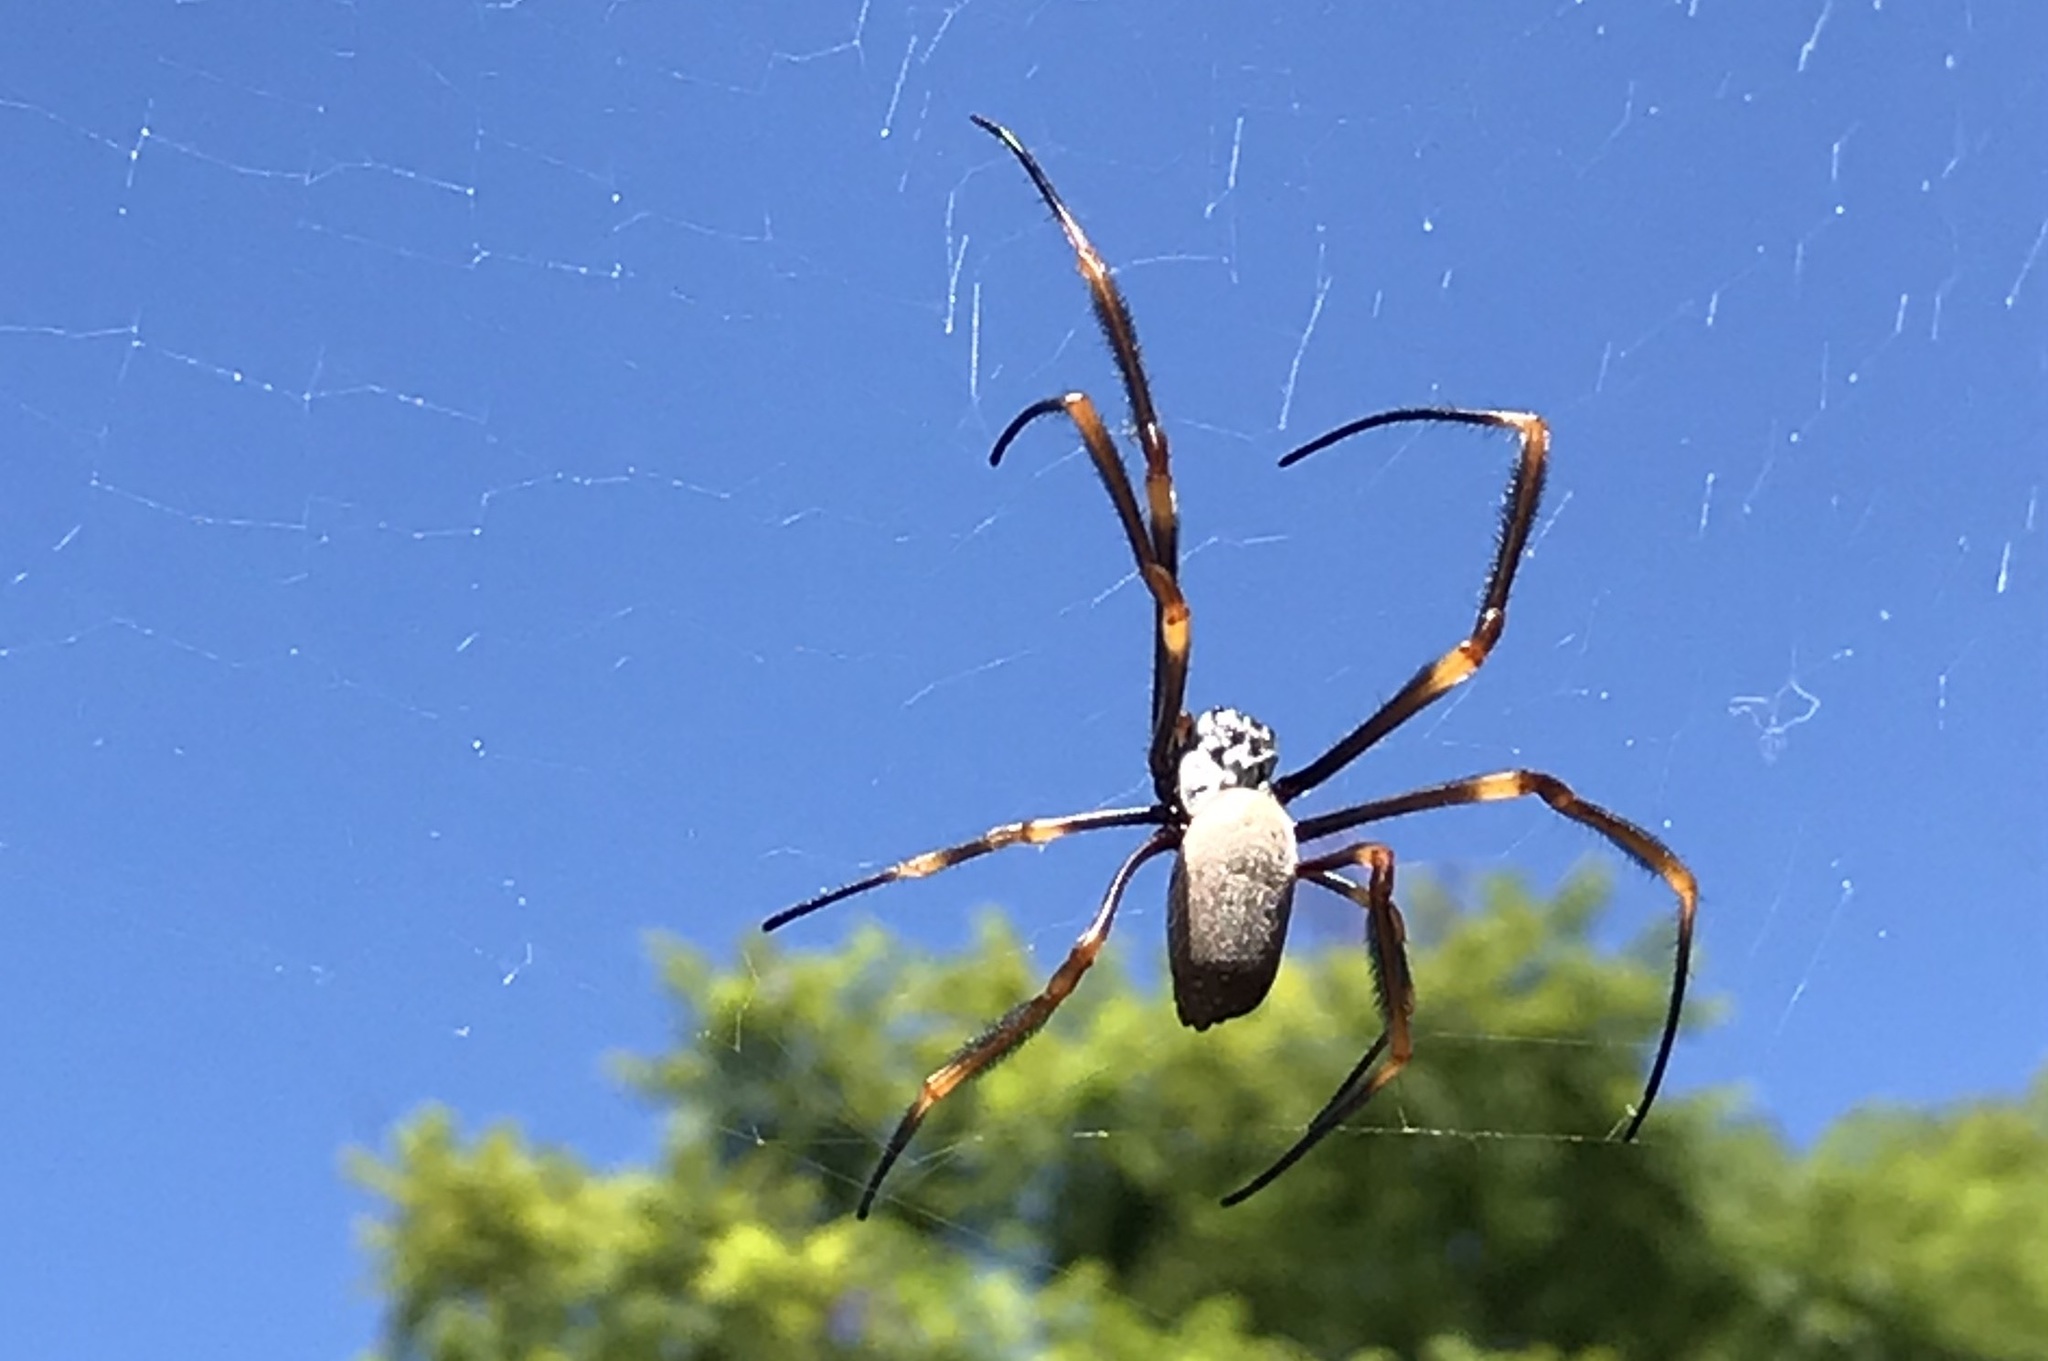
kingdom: Animalia
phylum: Arthropoda
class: Arachnida
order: Araneae
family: Araneidae
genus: Trichonephila
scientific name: Trichonephila plumipes
